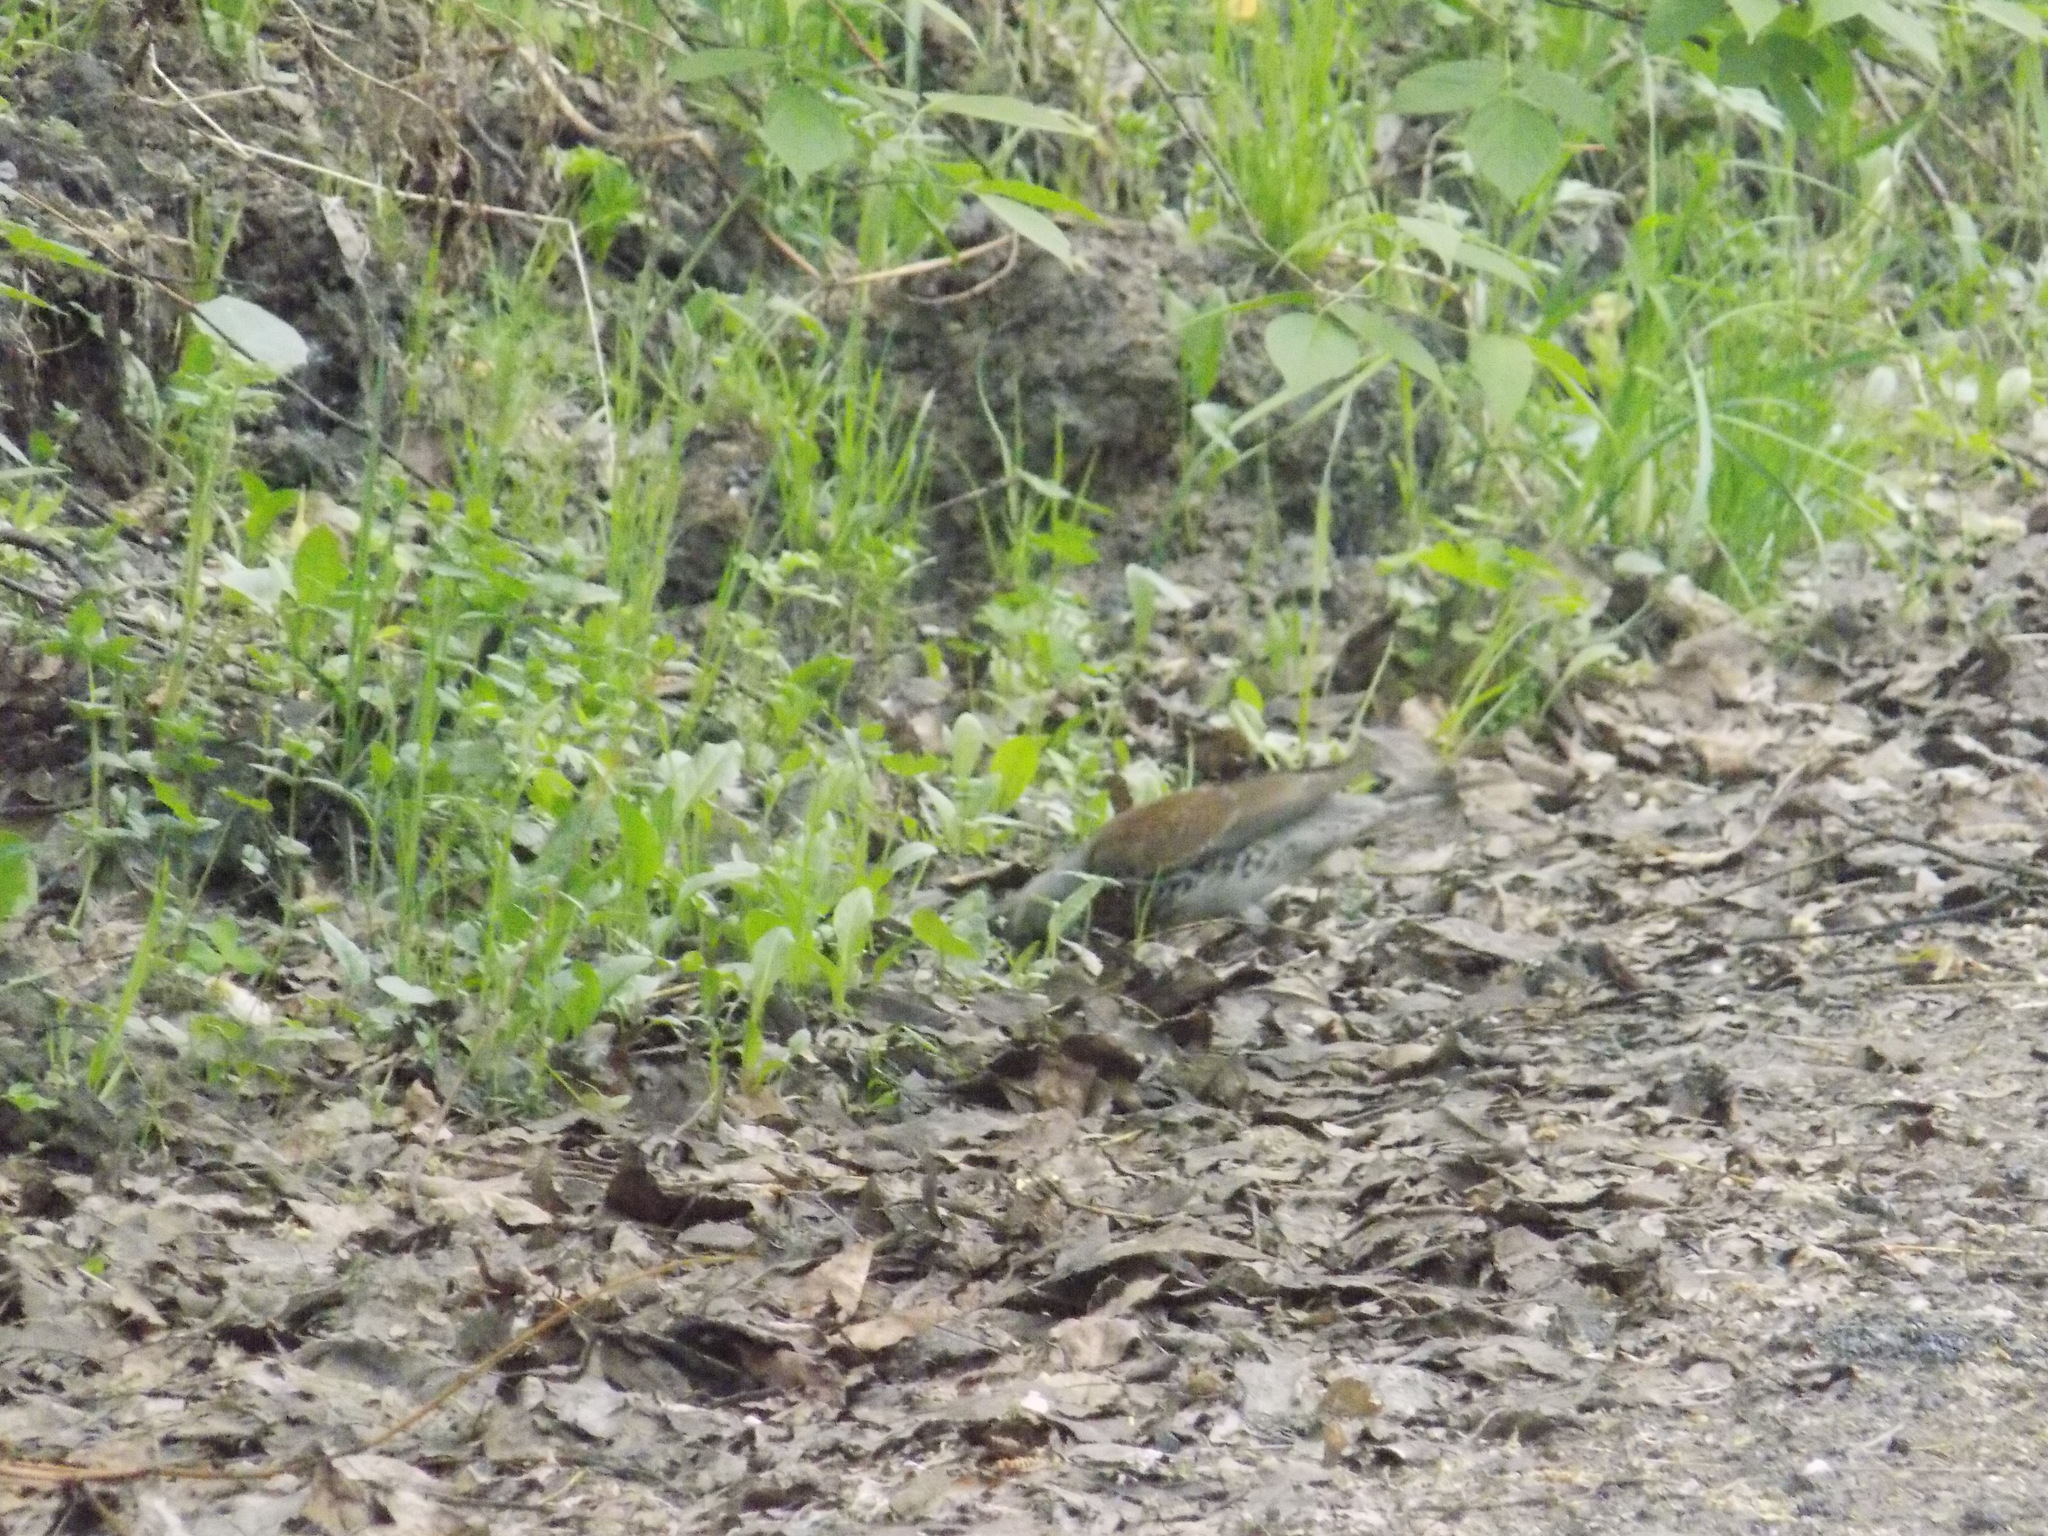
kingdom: Animalia
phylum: Chordata
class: Aves
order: Passeriformes
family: Turdidae
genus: Turdus
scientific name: Turdus pilaris
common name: Fieldfare
